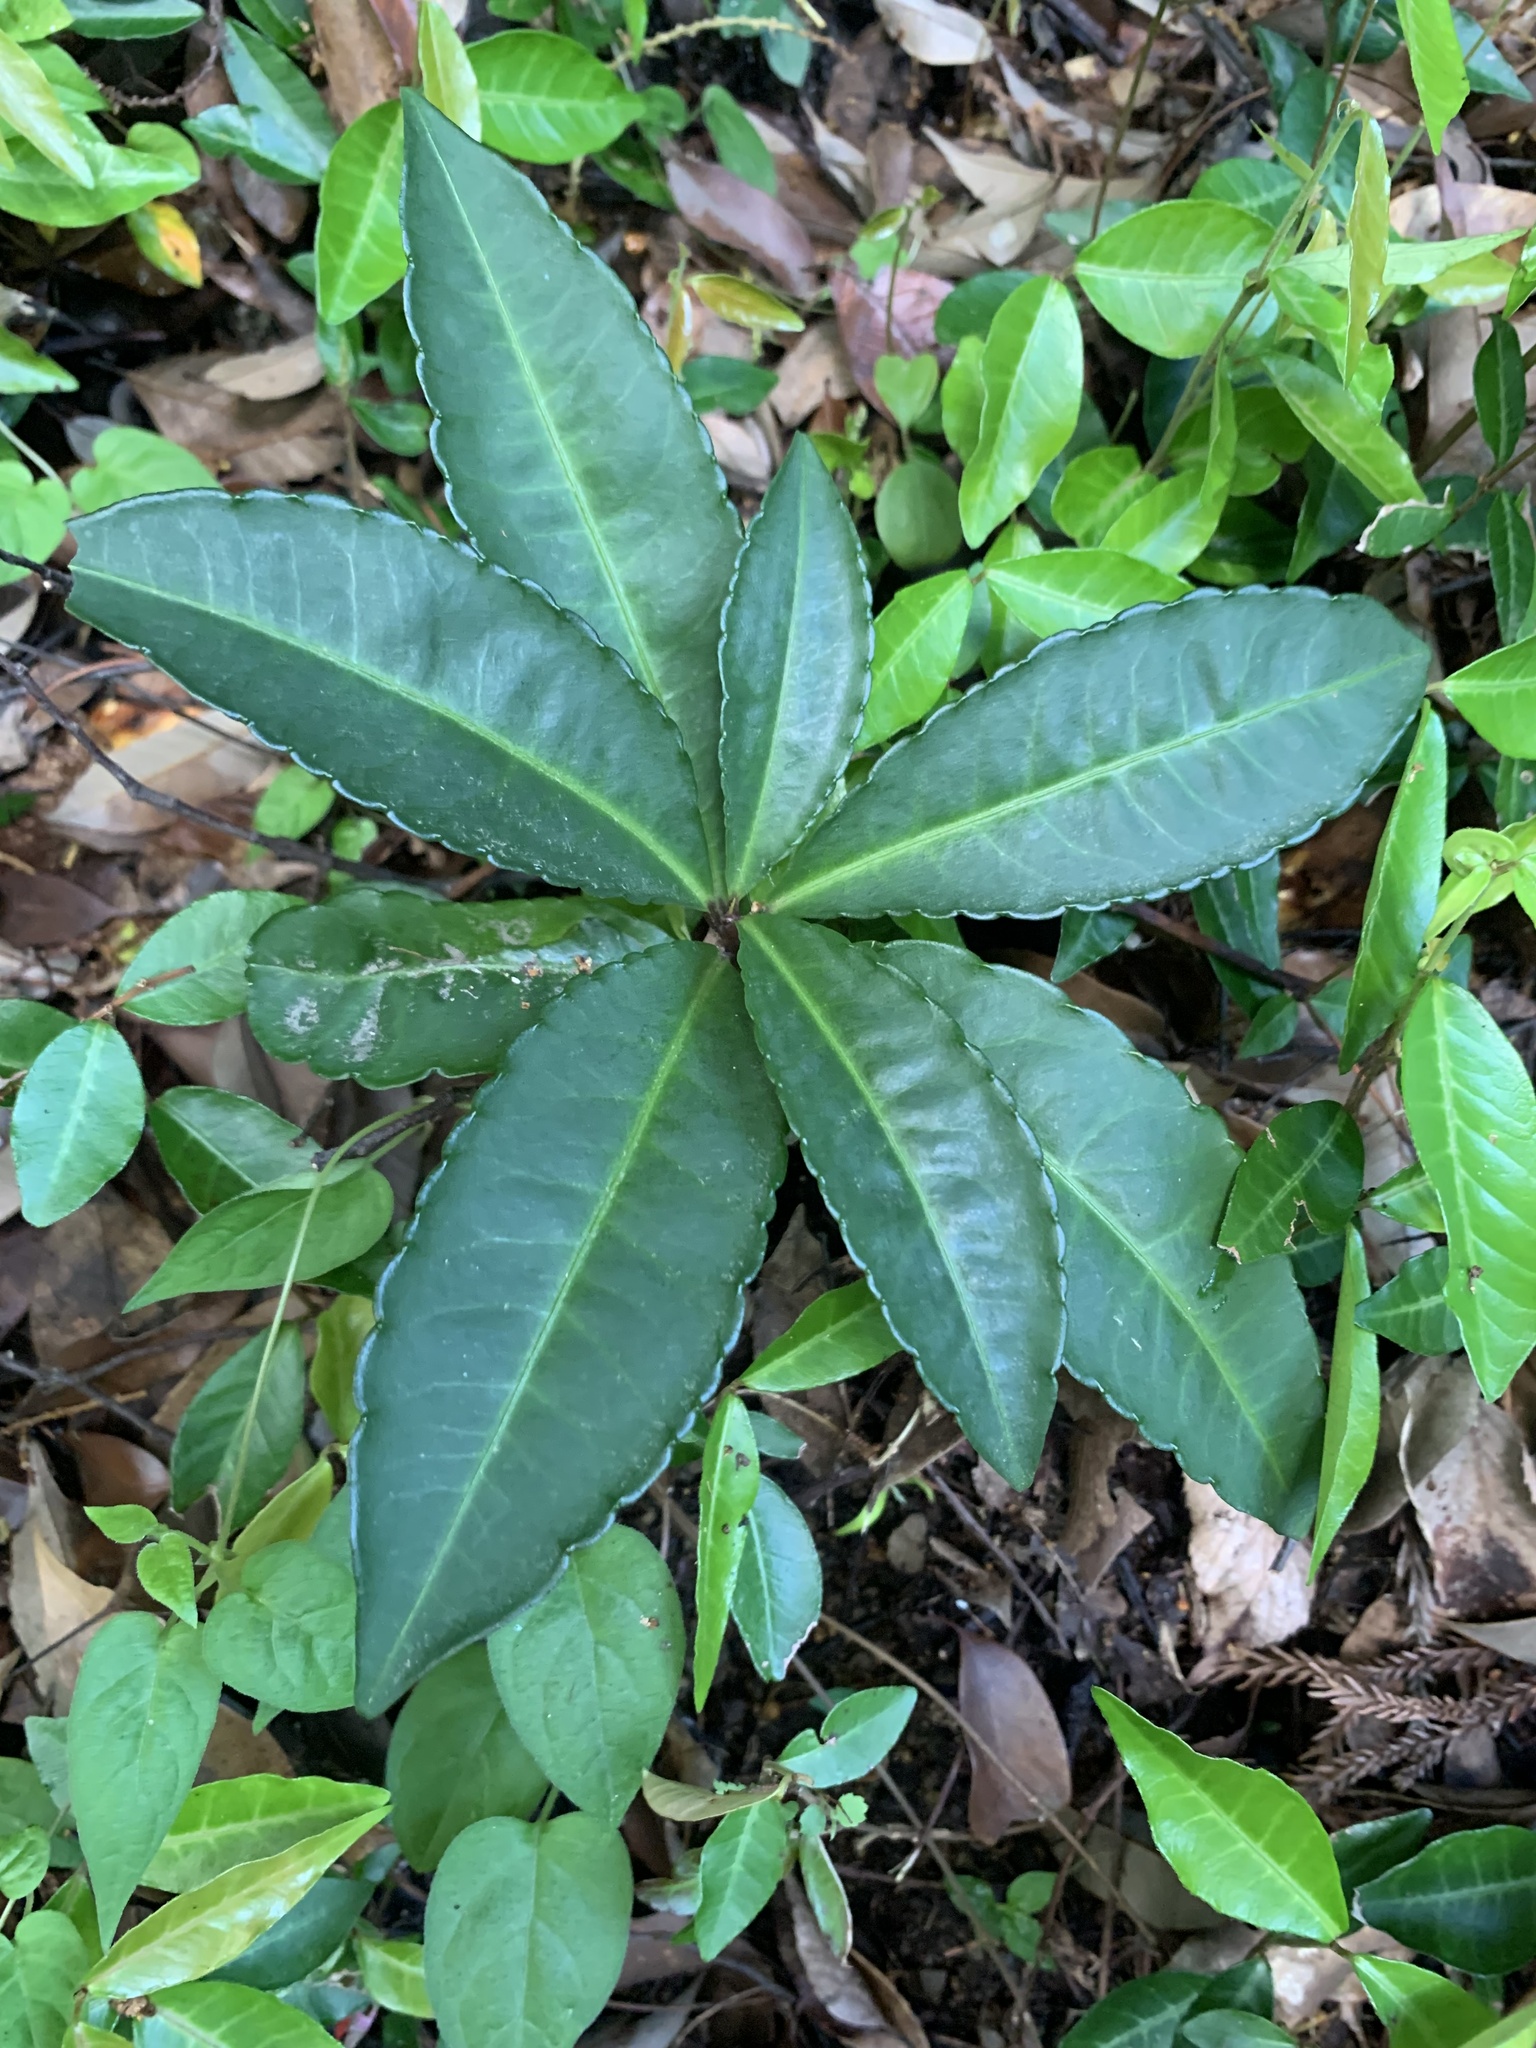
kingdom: Plantae
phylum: Tracheophyta
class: Magnoliopsida
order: Ericales
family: Primulaceae
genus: Ardisia
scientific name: Ardisia crenata
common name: Hen's eyes
